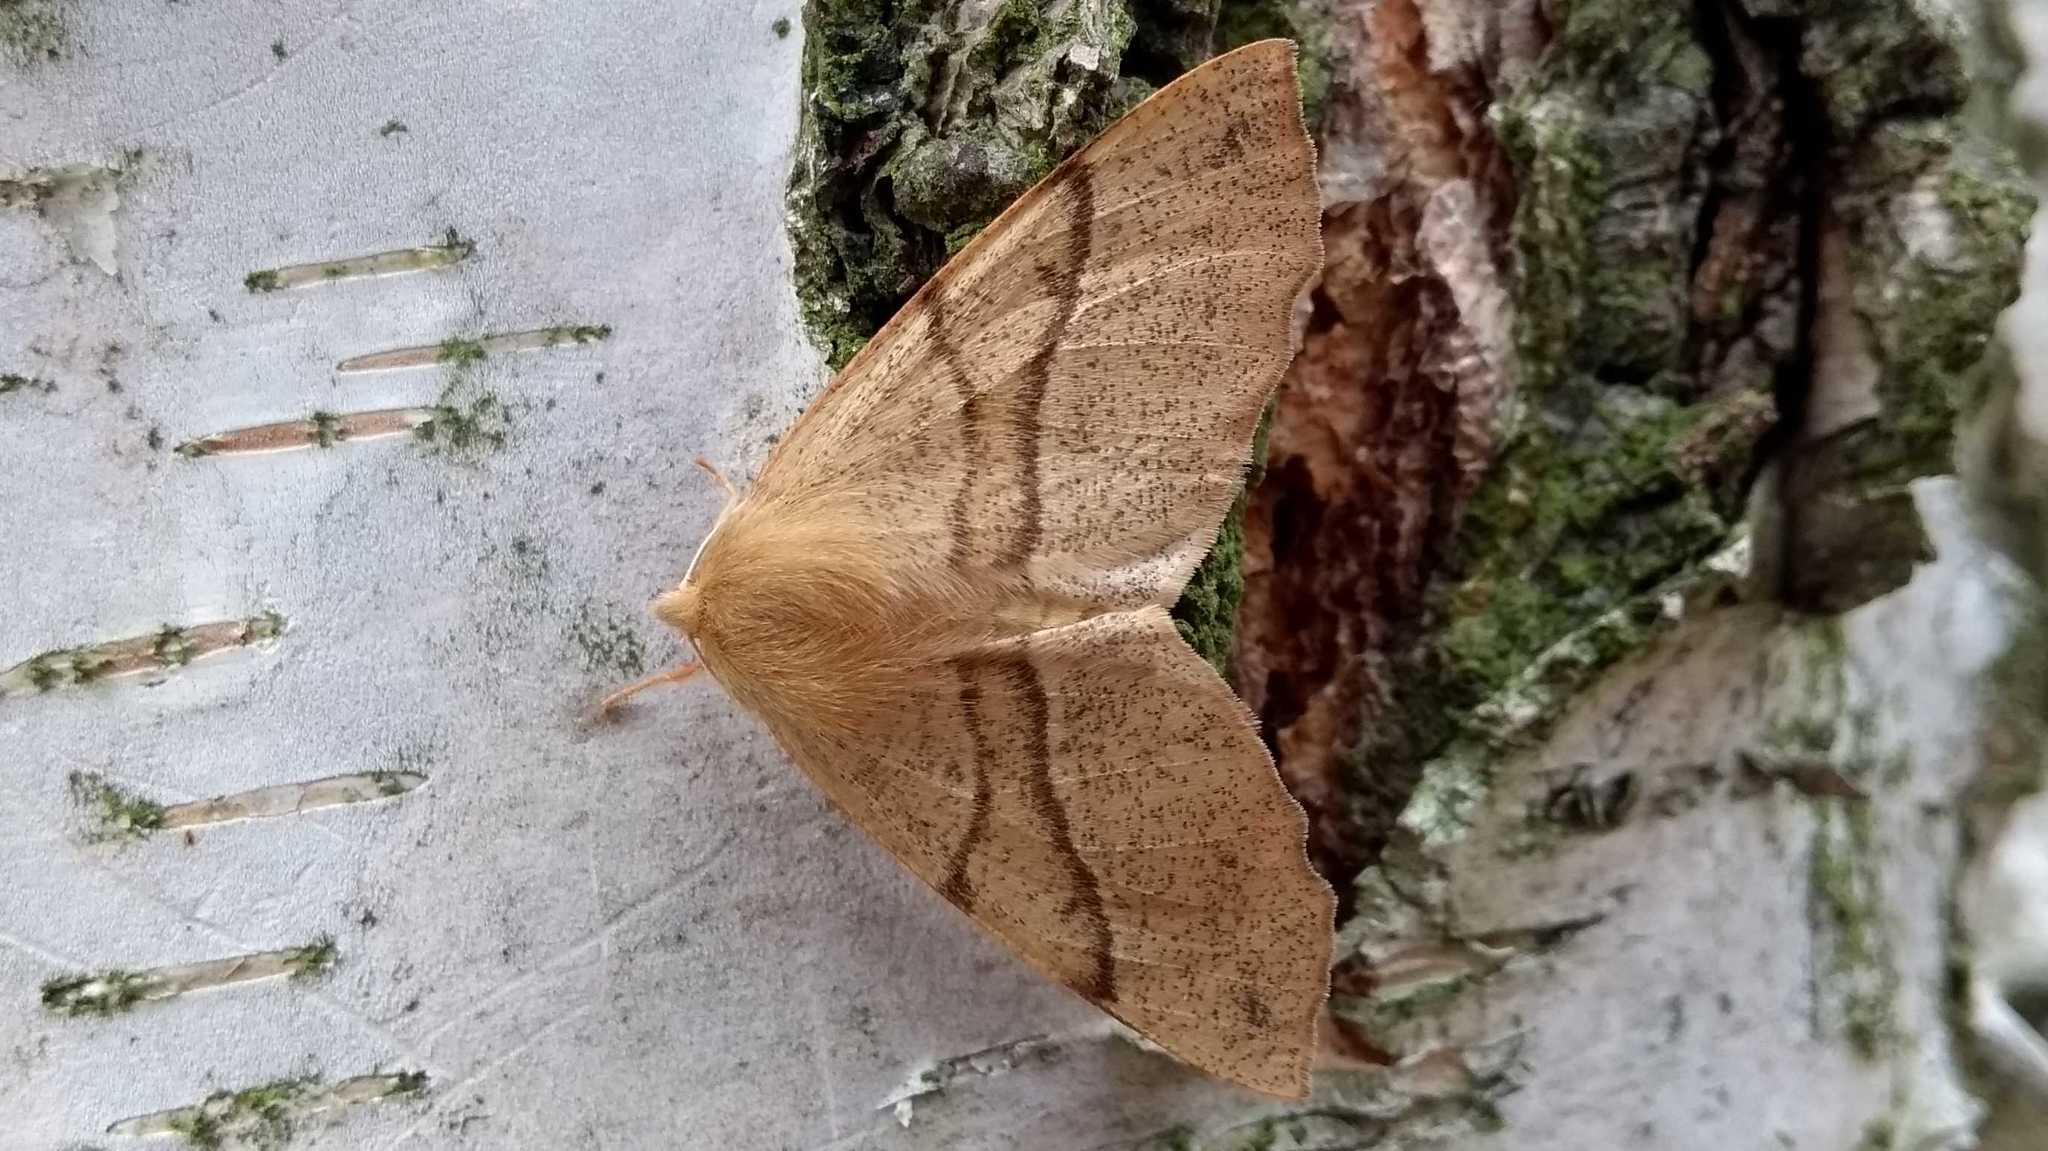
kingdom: Animalia
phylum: Arthropoda
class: Insecta
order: Lepidoptera
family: Geometridae
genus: Colotois
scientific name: Colotois pennaria
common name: Feathered thorn
